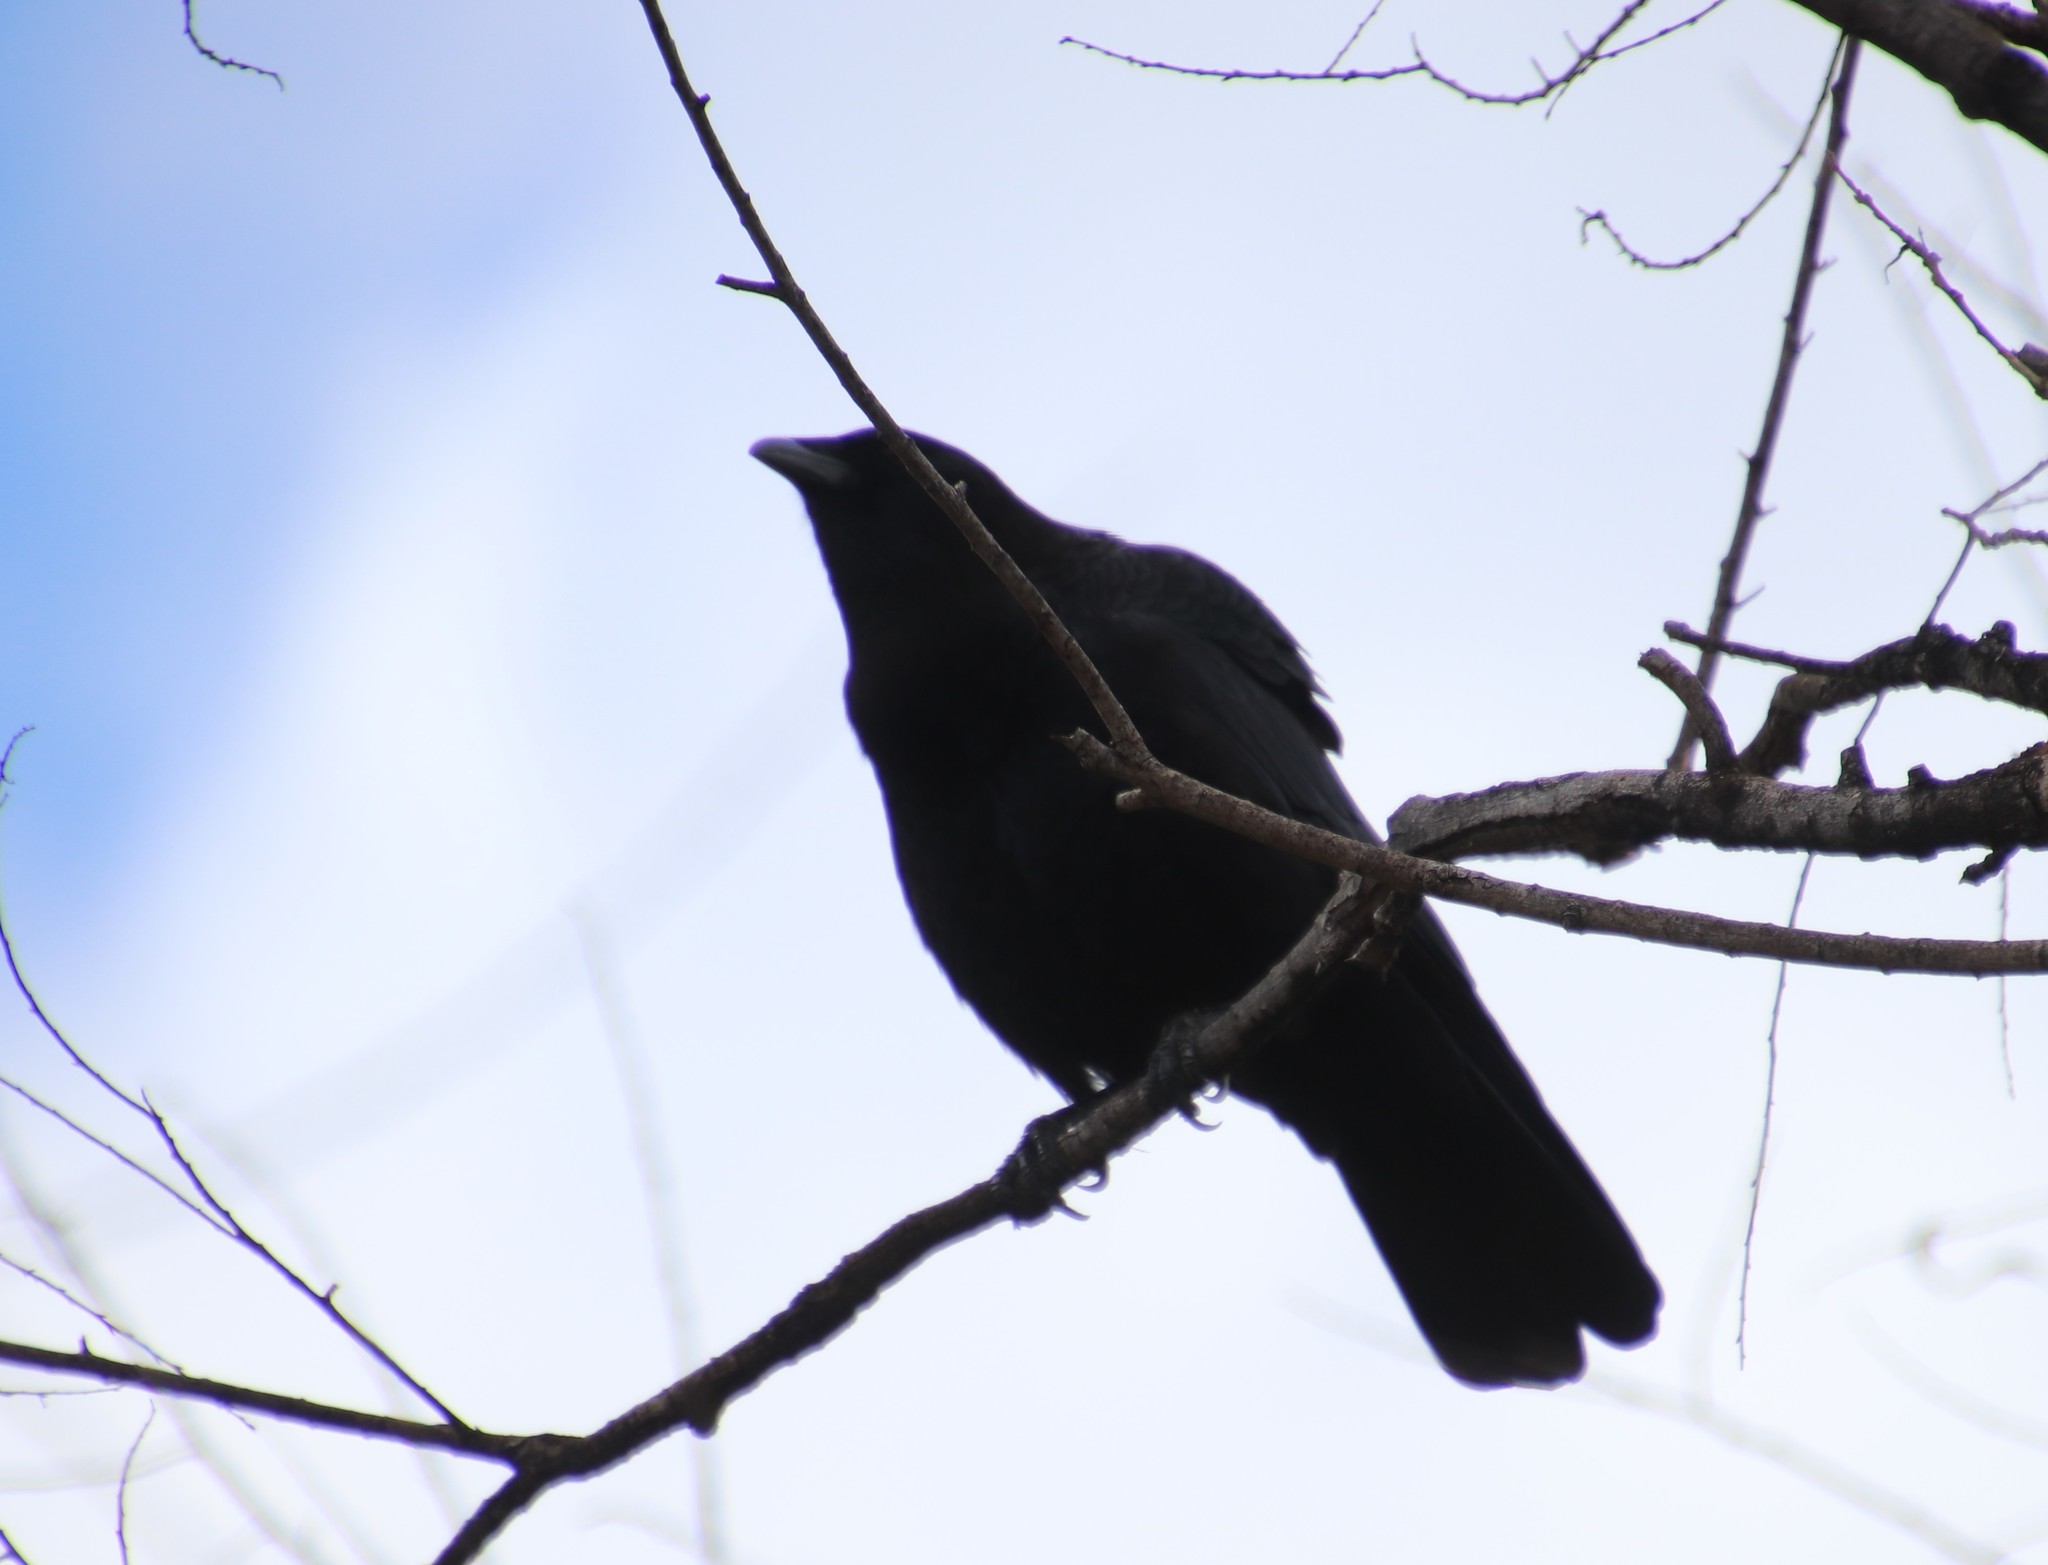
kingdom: Animalia
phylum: Chordata
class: Aves
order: Passeriformes
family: Corvidae
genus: Corvus
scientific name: Corvus brachyrhynchos
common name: American crow
